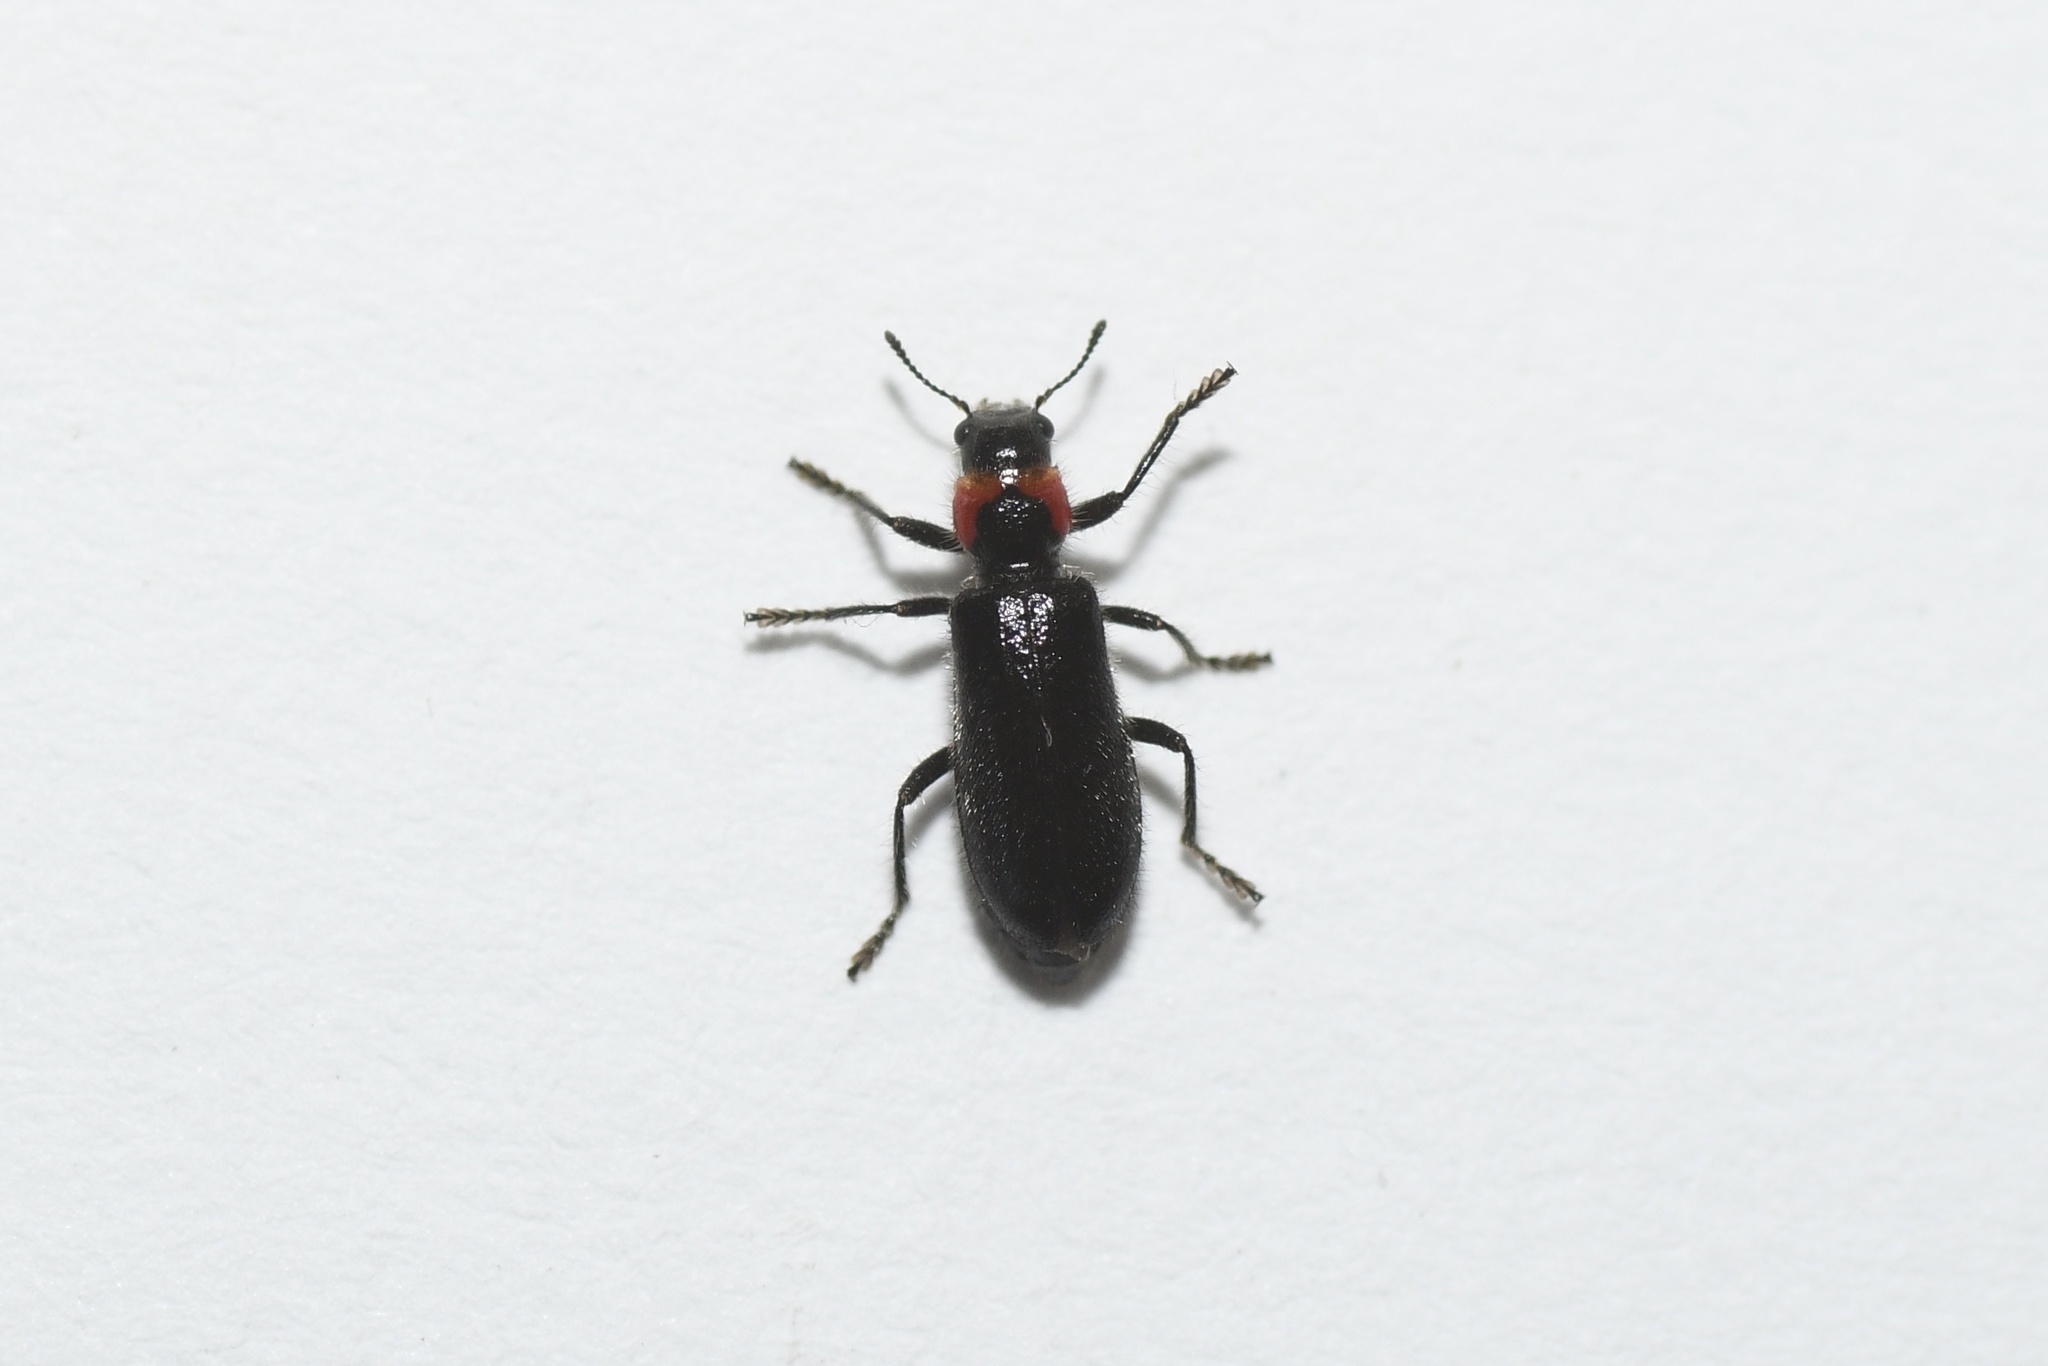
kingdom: Animalia
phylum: Arthropoda
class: Insecta
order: Coleoptera
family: Cleridae
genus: Placopterus
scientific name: Placopterus thoracicus
